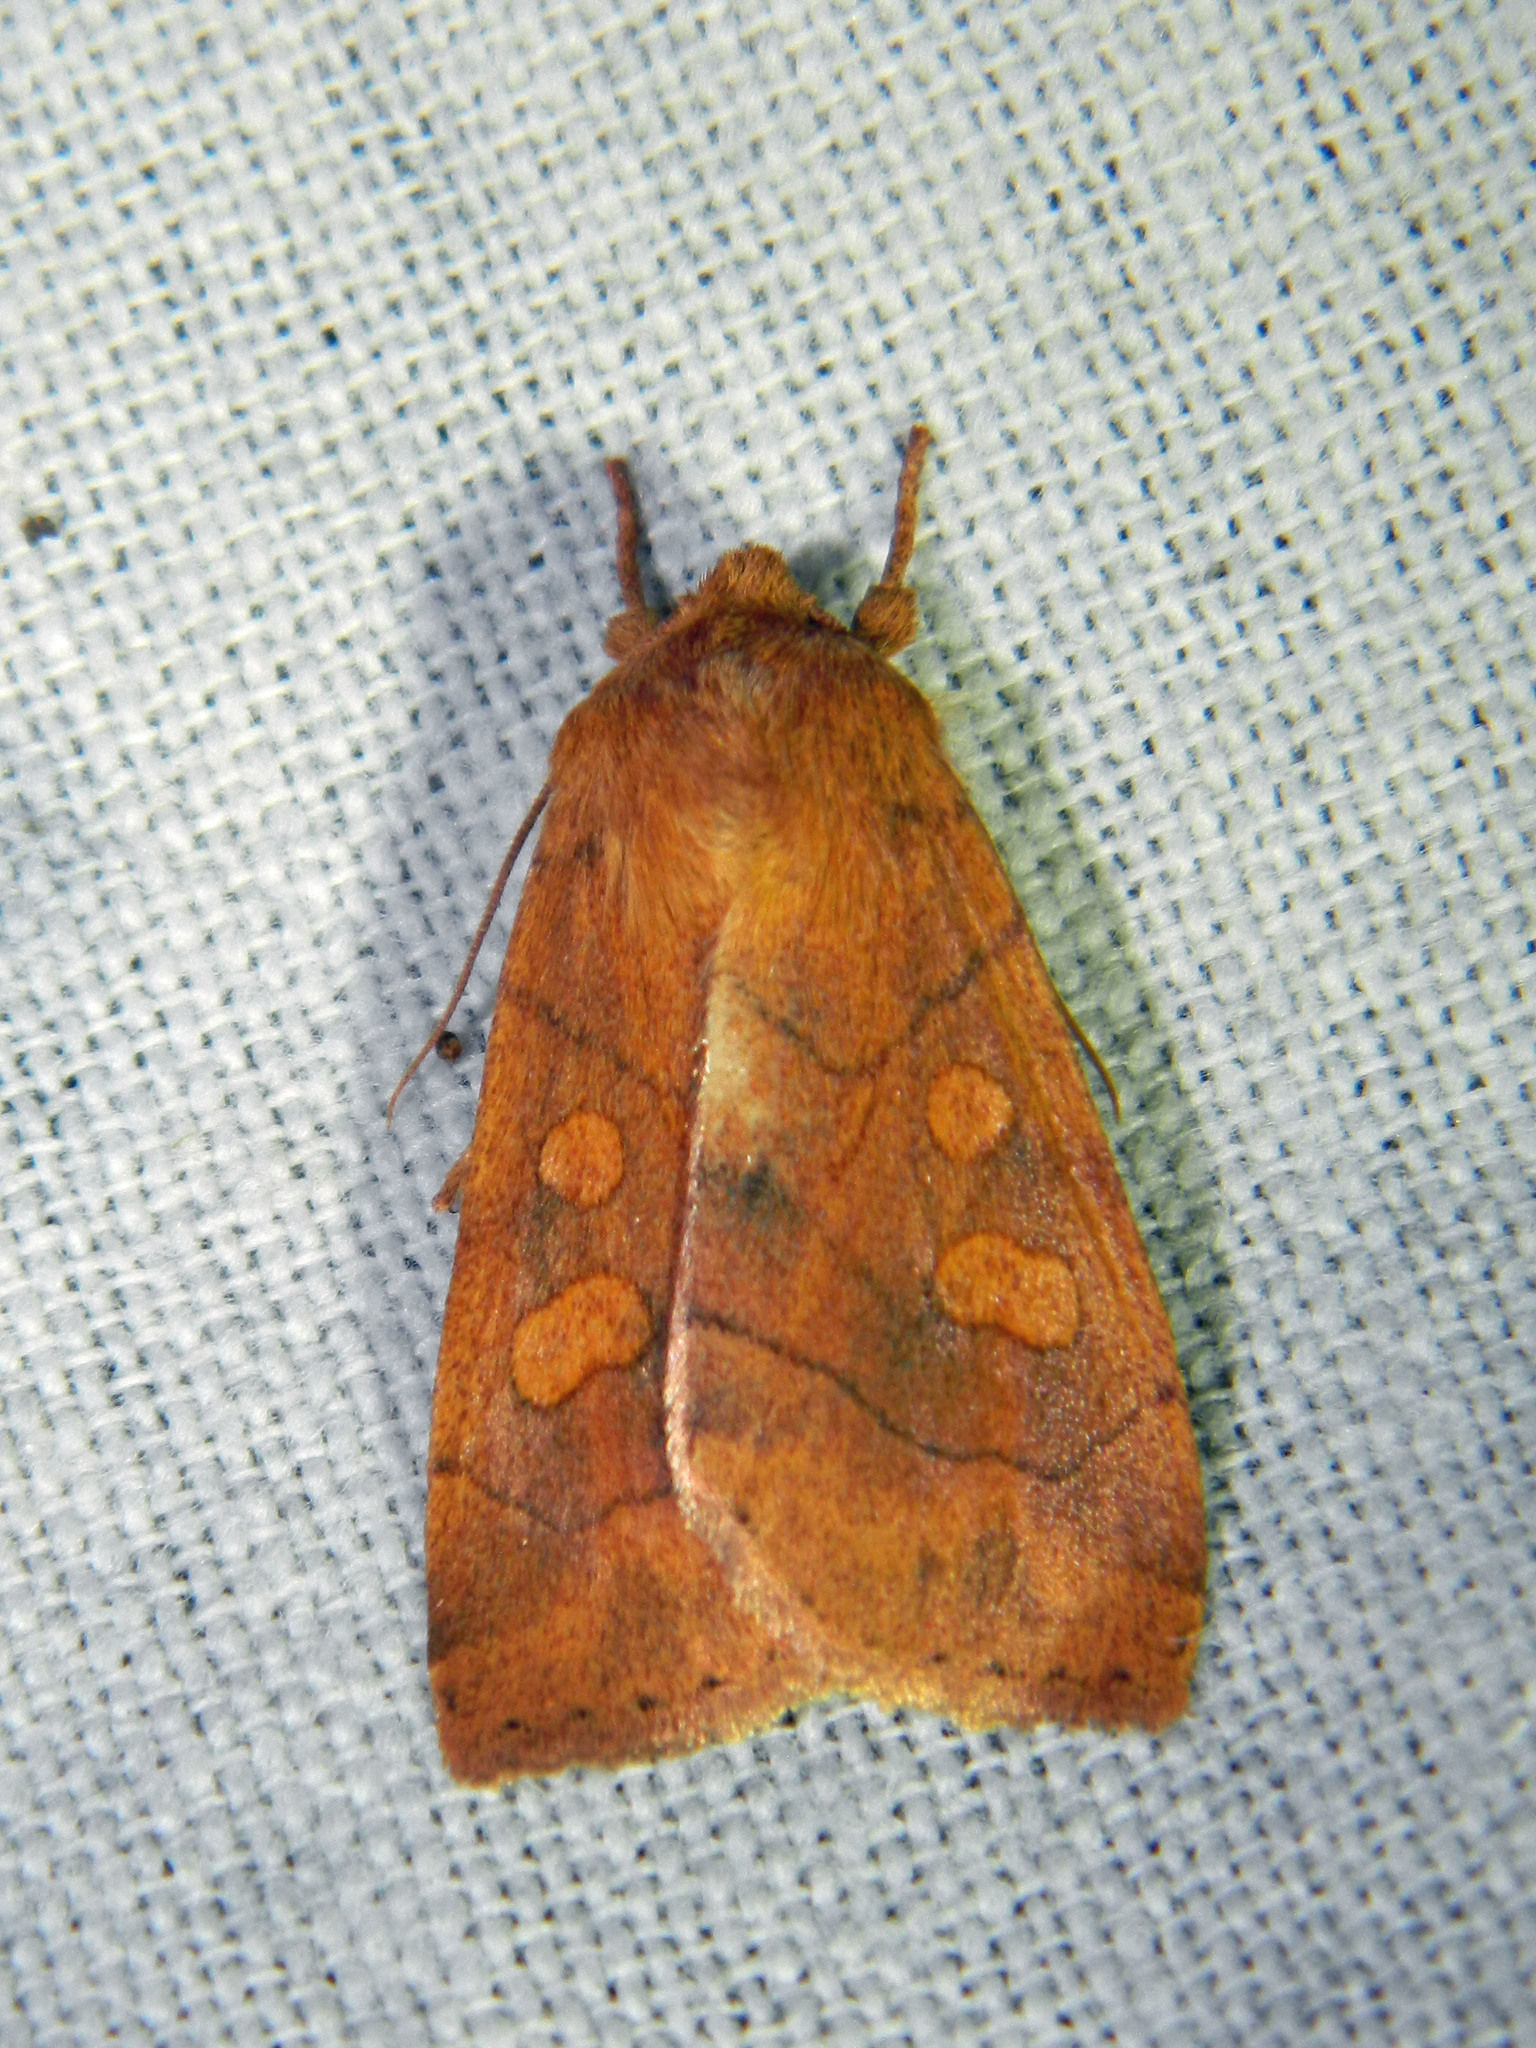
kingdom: Animalia
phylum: Arthropoda
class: Insecta
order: Lepidoptera
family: Noctuidae
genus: Enargia
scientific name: Enargia decolor
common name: Aspen twoleaf tier moth
